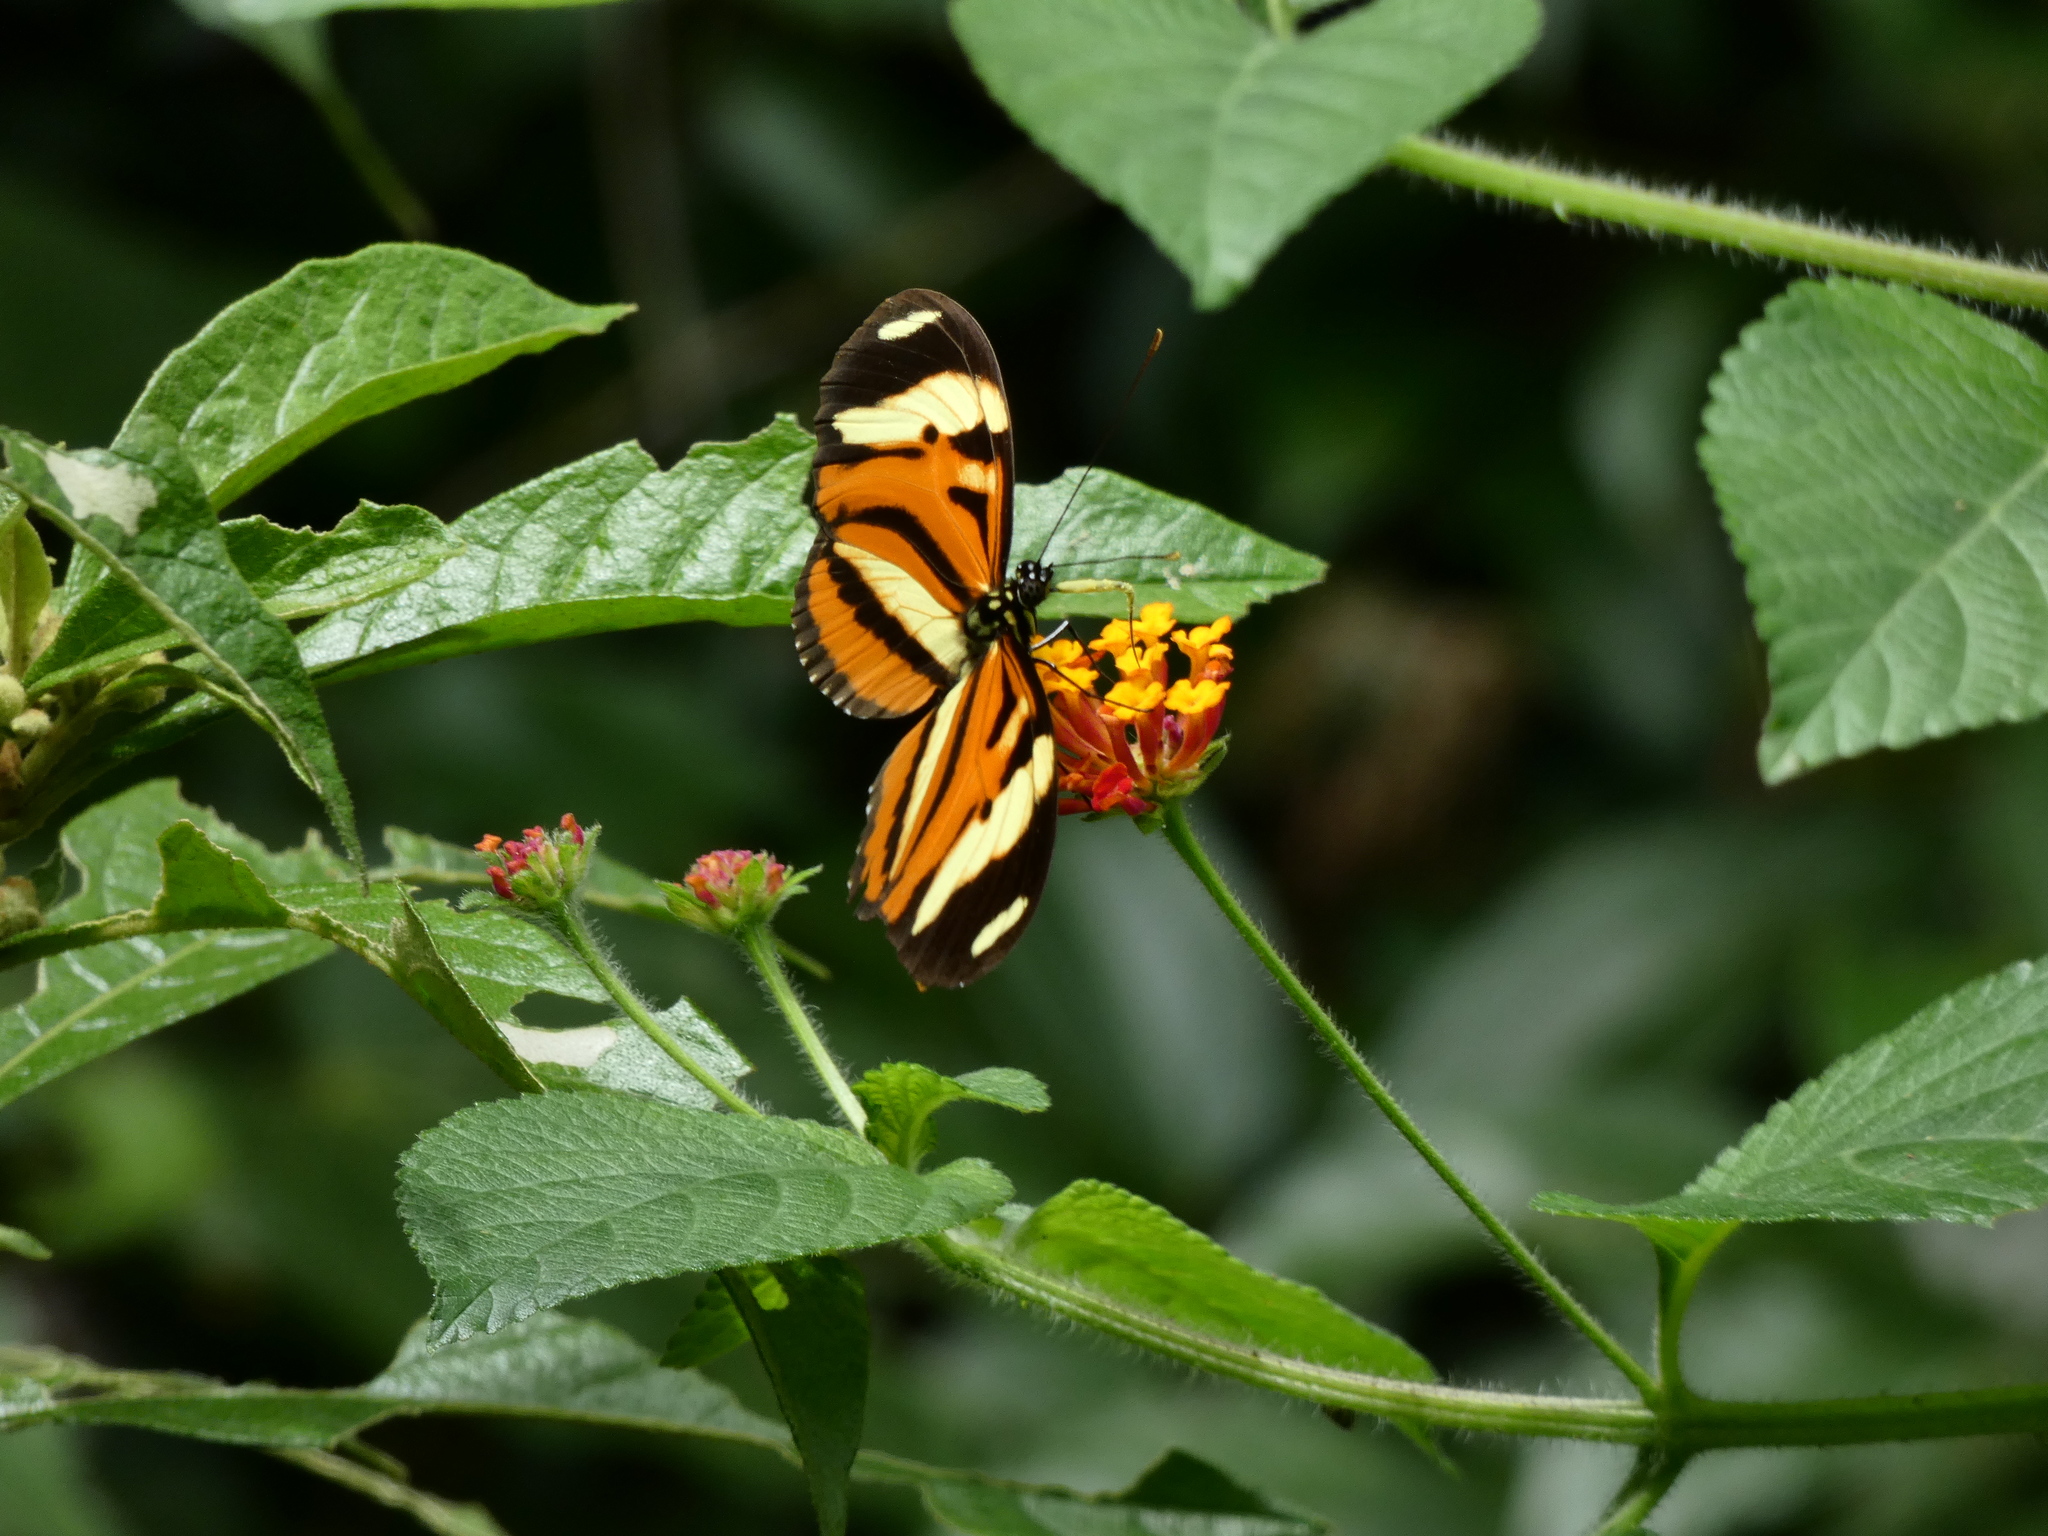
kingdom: Animalia
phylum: Arthropoda
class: Insecta
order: Lepidoptera
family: Nymphalidae
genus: Heliconius
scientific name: Heliconius ethilla
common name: Ethilia longwing
